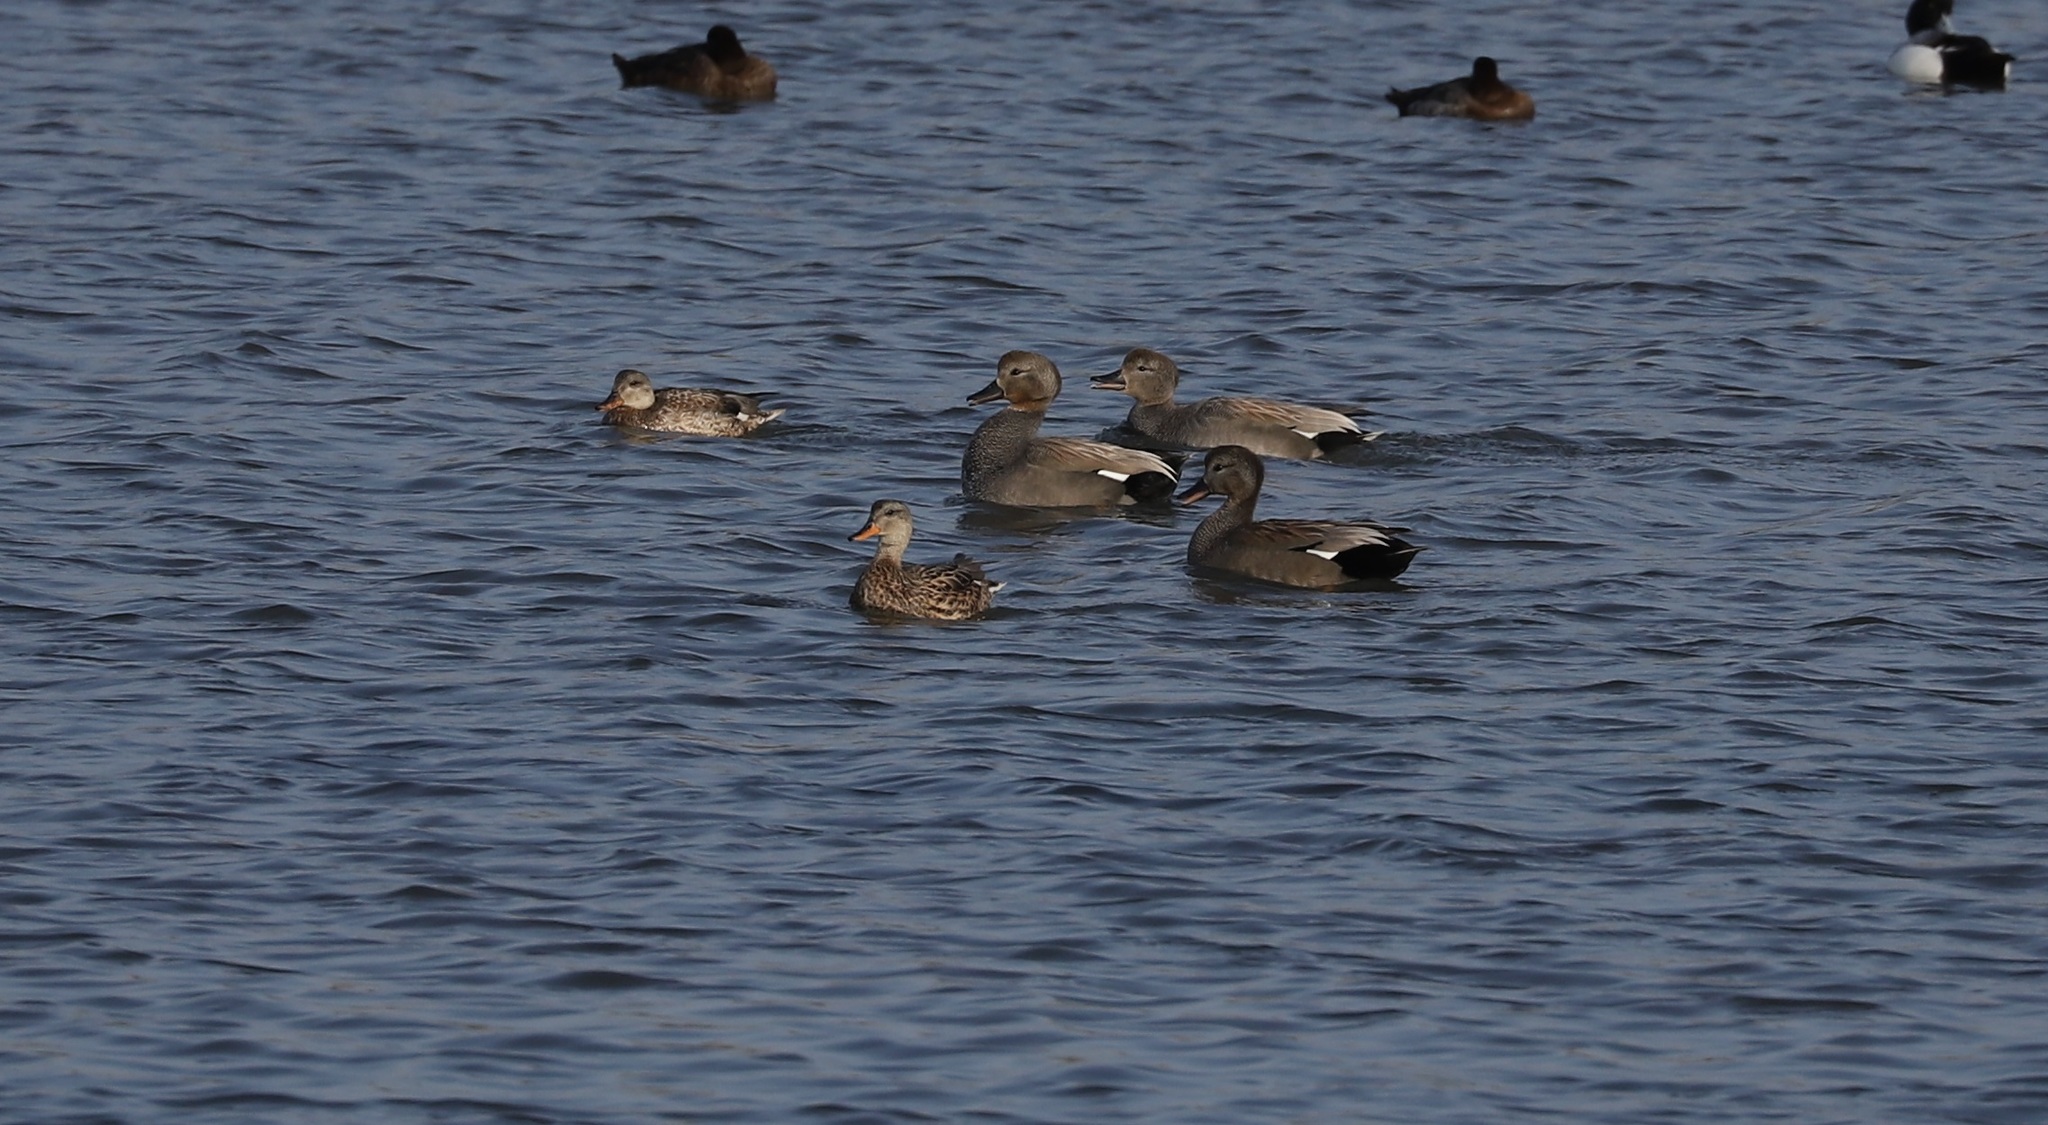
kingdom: Animalia
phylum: Chordata
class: Aves
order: Anseriformes
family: Anatidae
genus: Mareca
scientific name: Mareca strepera
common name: Gadwall
